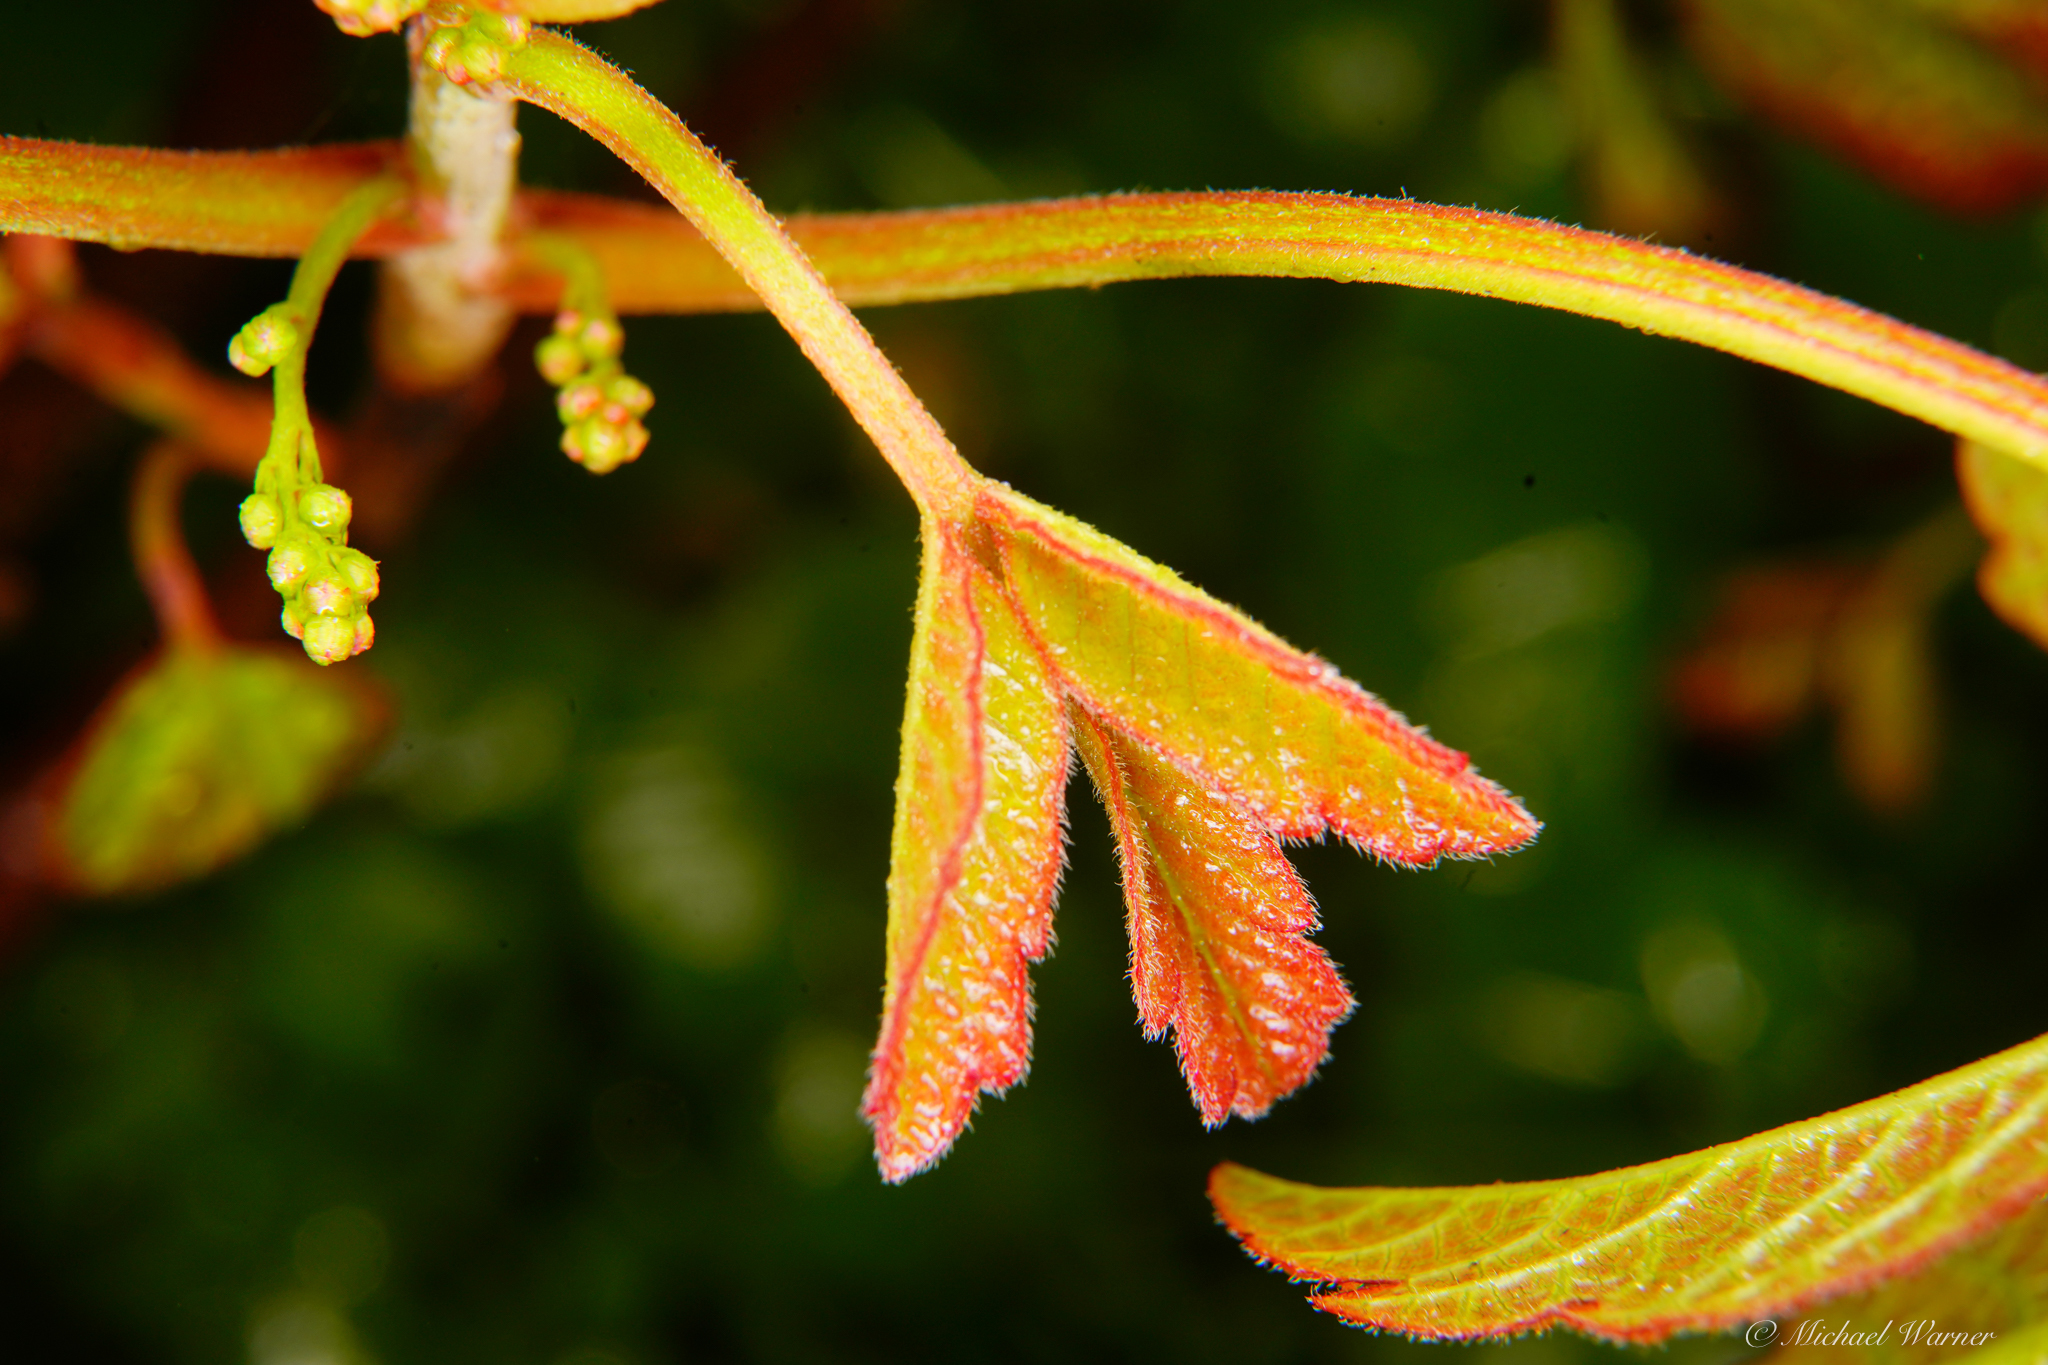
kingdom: Plantae
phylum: Tracheophyta
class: Magnoliopsida
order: Sapindales
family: Anacardiaceae
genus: Toxicodendron
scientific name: Toxicodendron diversilobum
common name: Pacific poison-oak
